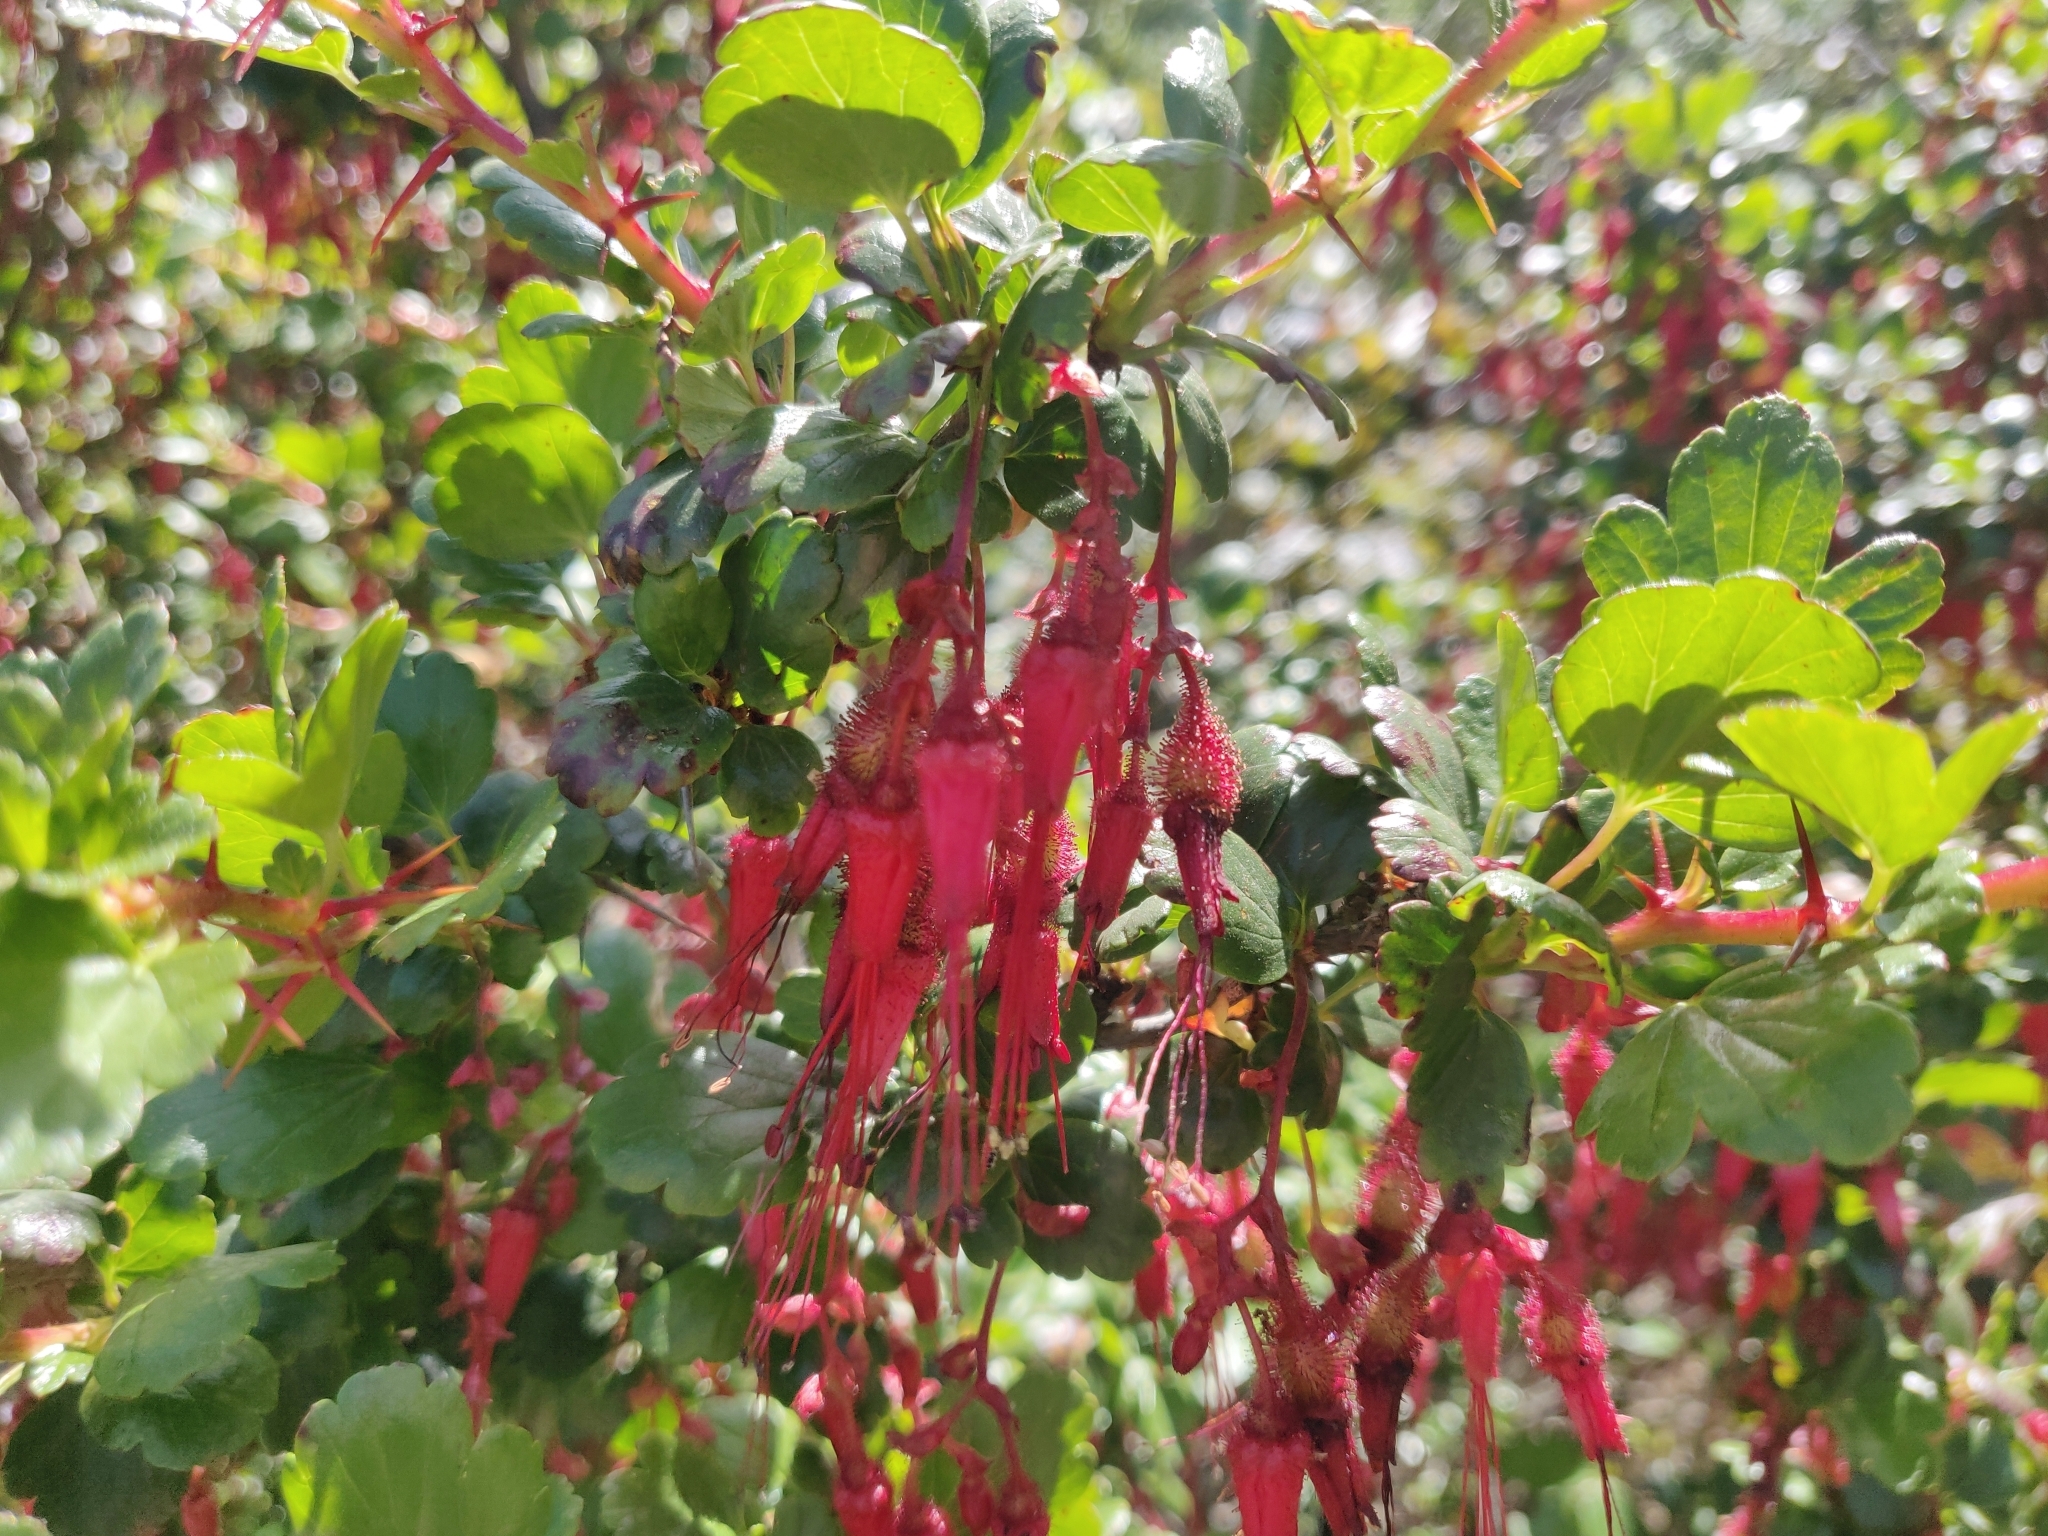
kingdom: Plantae
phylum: Tracheophyta
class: Magnoliopsida
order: Saxifragales
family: Grossulariaceae
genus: Ribes
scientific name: Ribes speciosum
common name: Fuchsia-flower gooseberry
